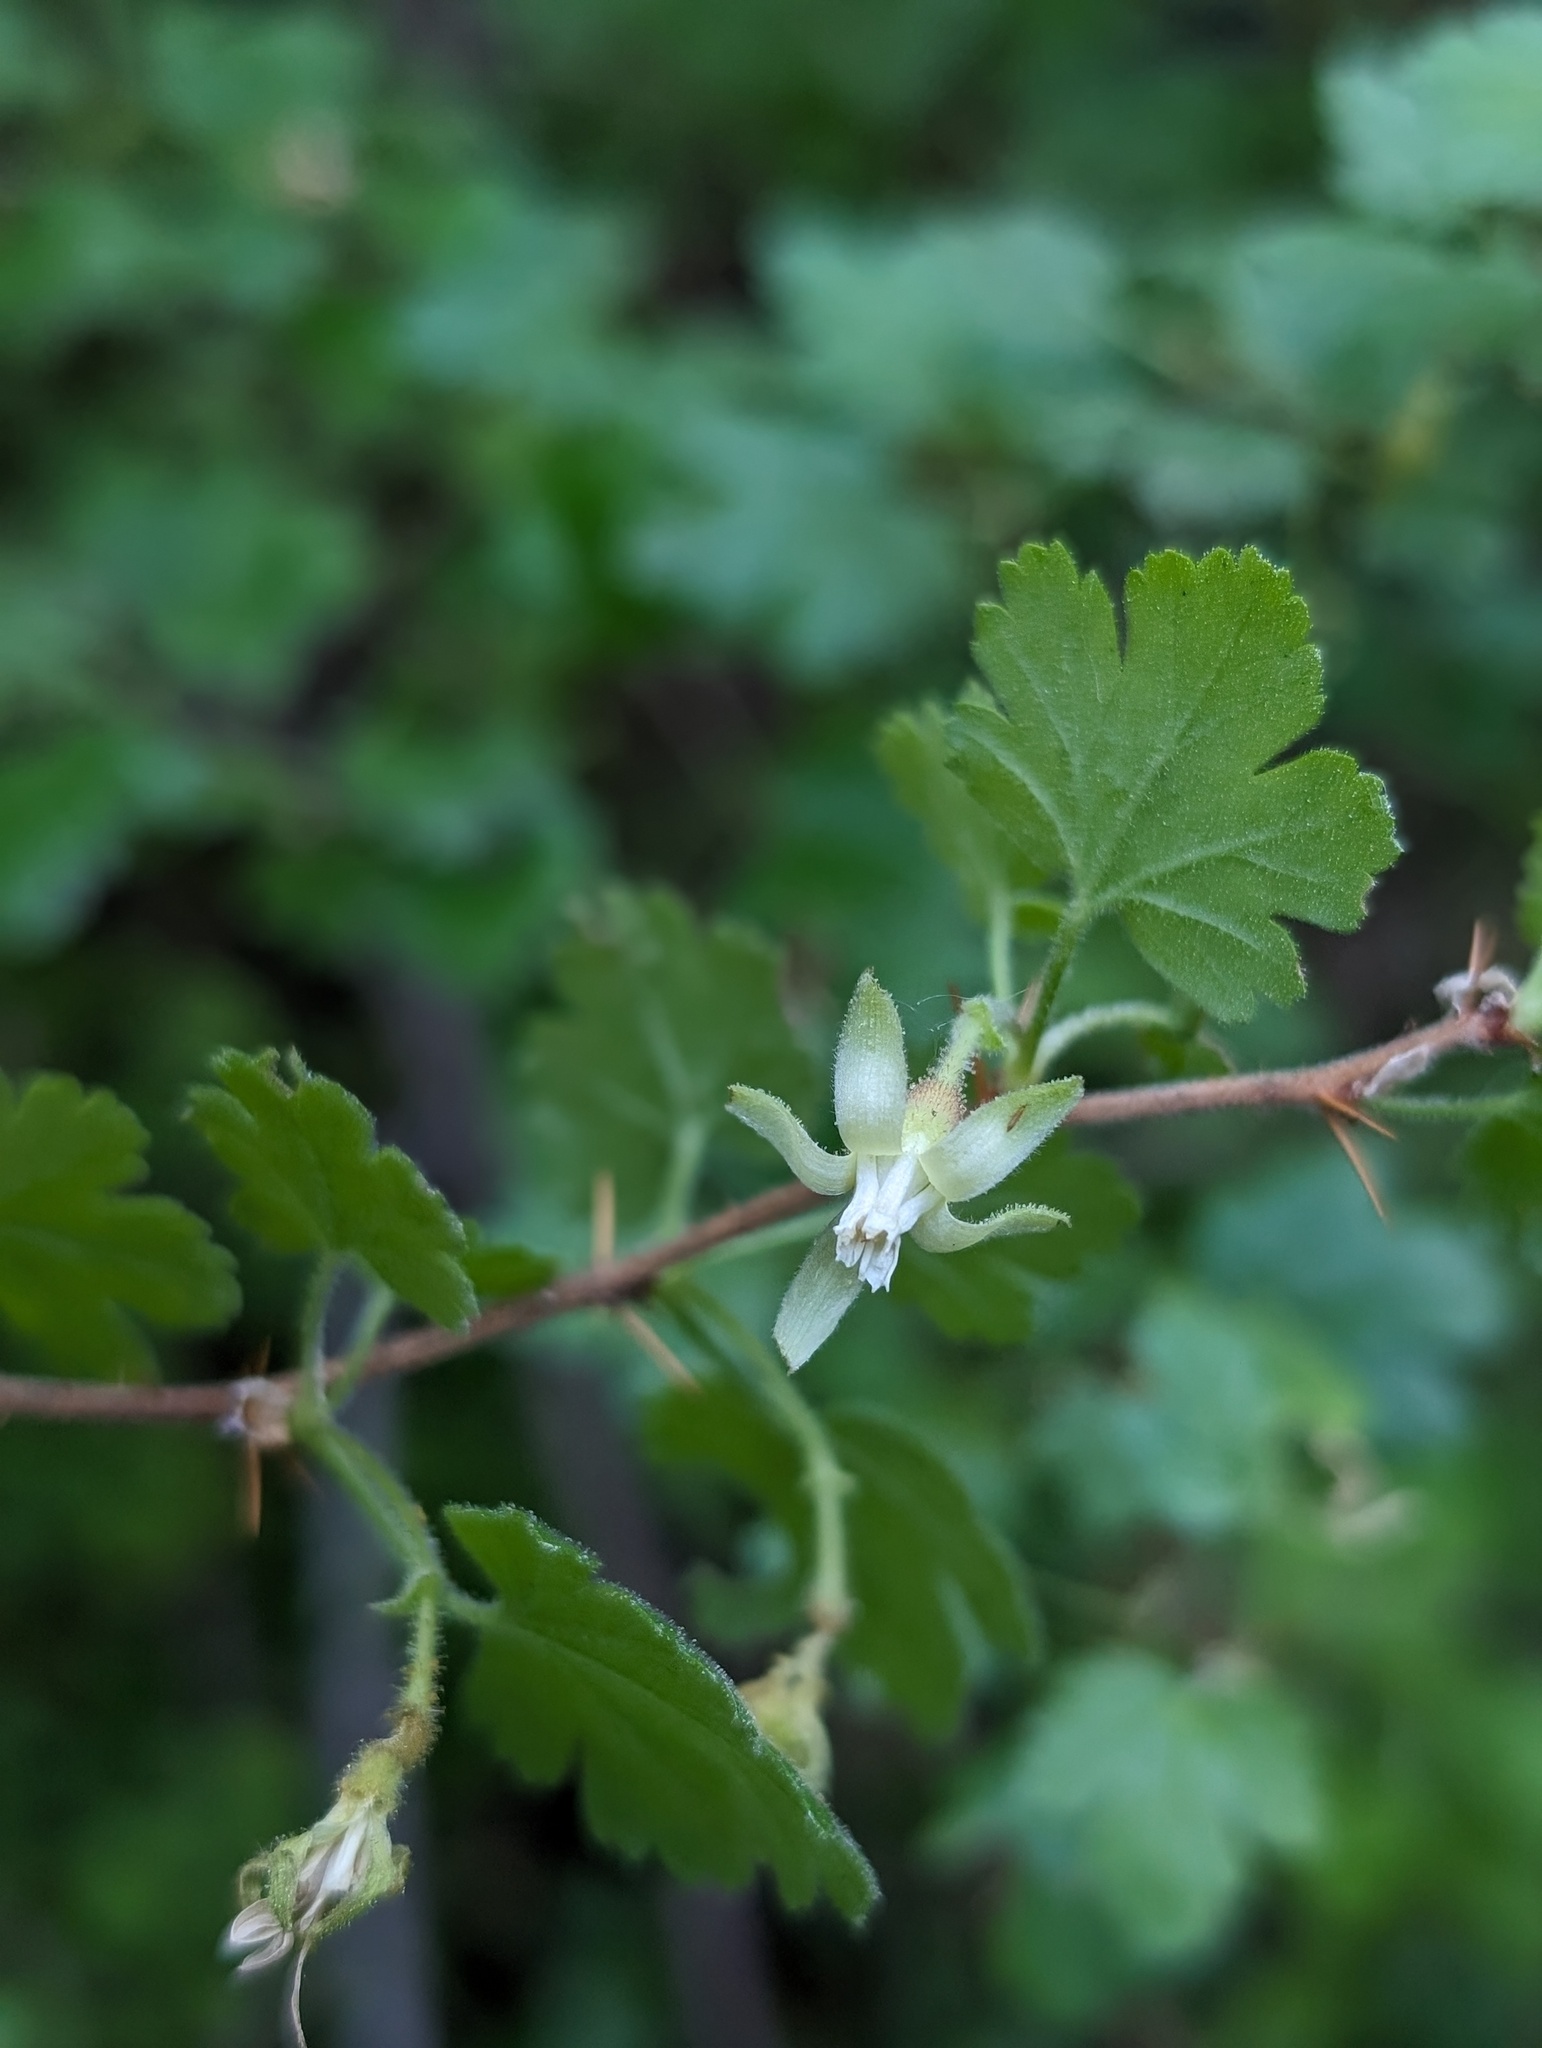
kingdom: Plantae
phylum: Tracheophyta
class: Magnoliopsida
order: Saxifragales
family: Grossulariaceae
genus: Ribes
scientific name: Ribes victoris
